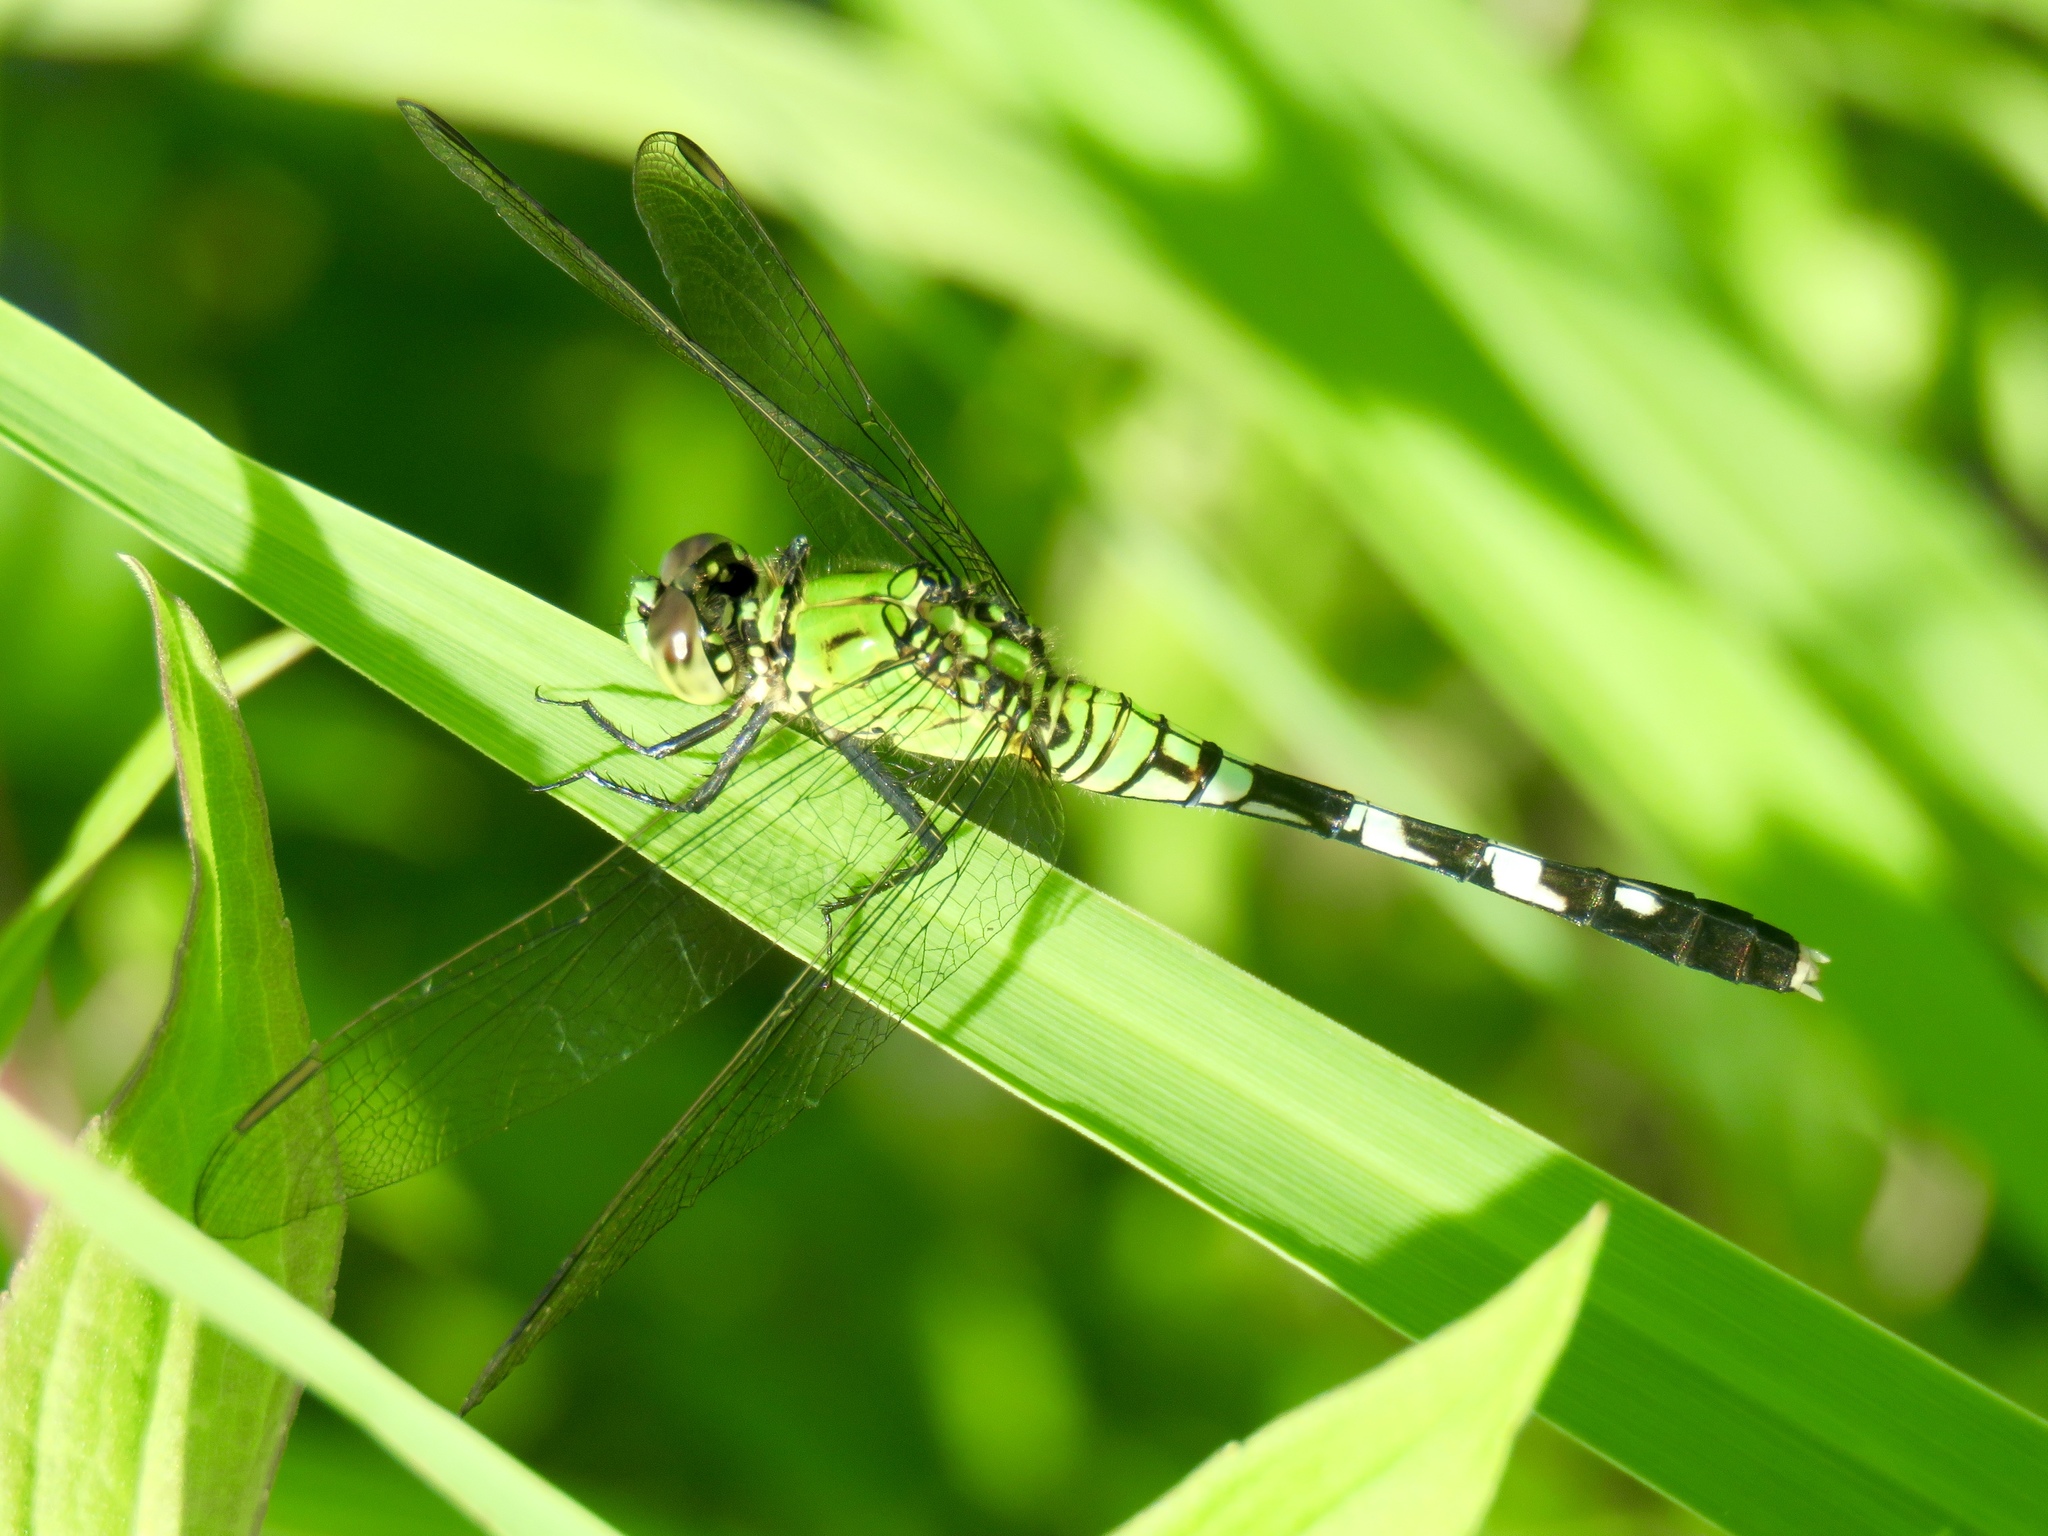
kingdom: Animalia
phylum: Arthropoda
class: Insecta
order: Odonata
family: Libellulidae
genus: Erythemis
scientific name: Erythemis simplicicollis
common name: Eastern pondhawk
